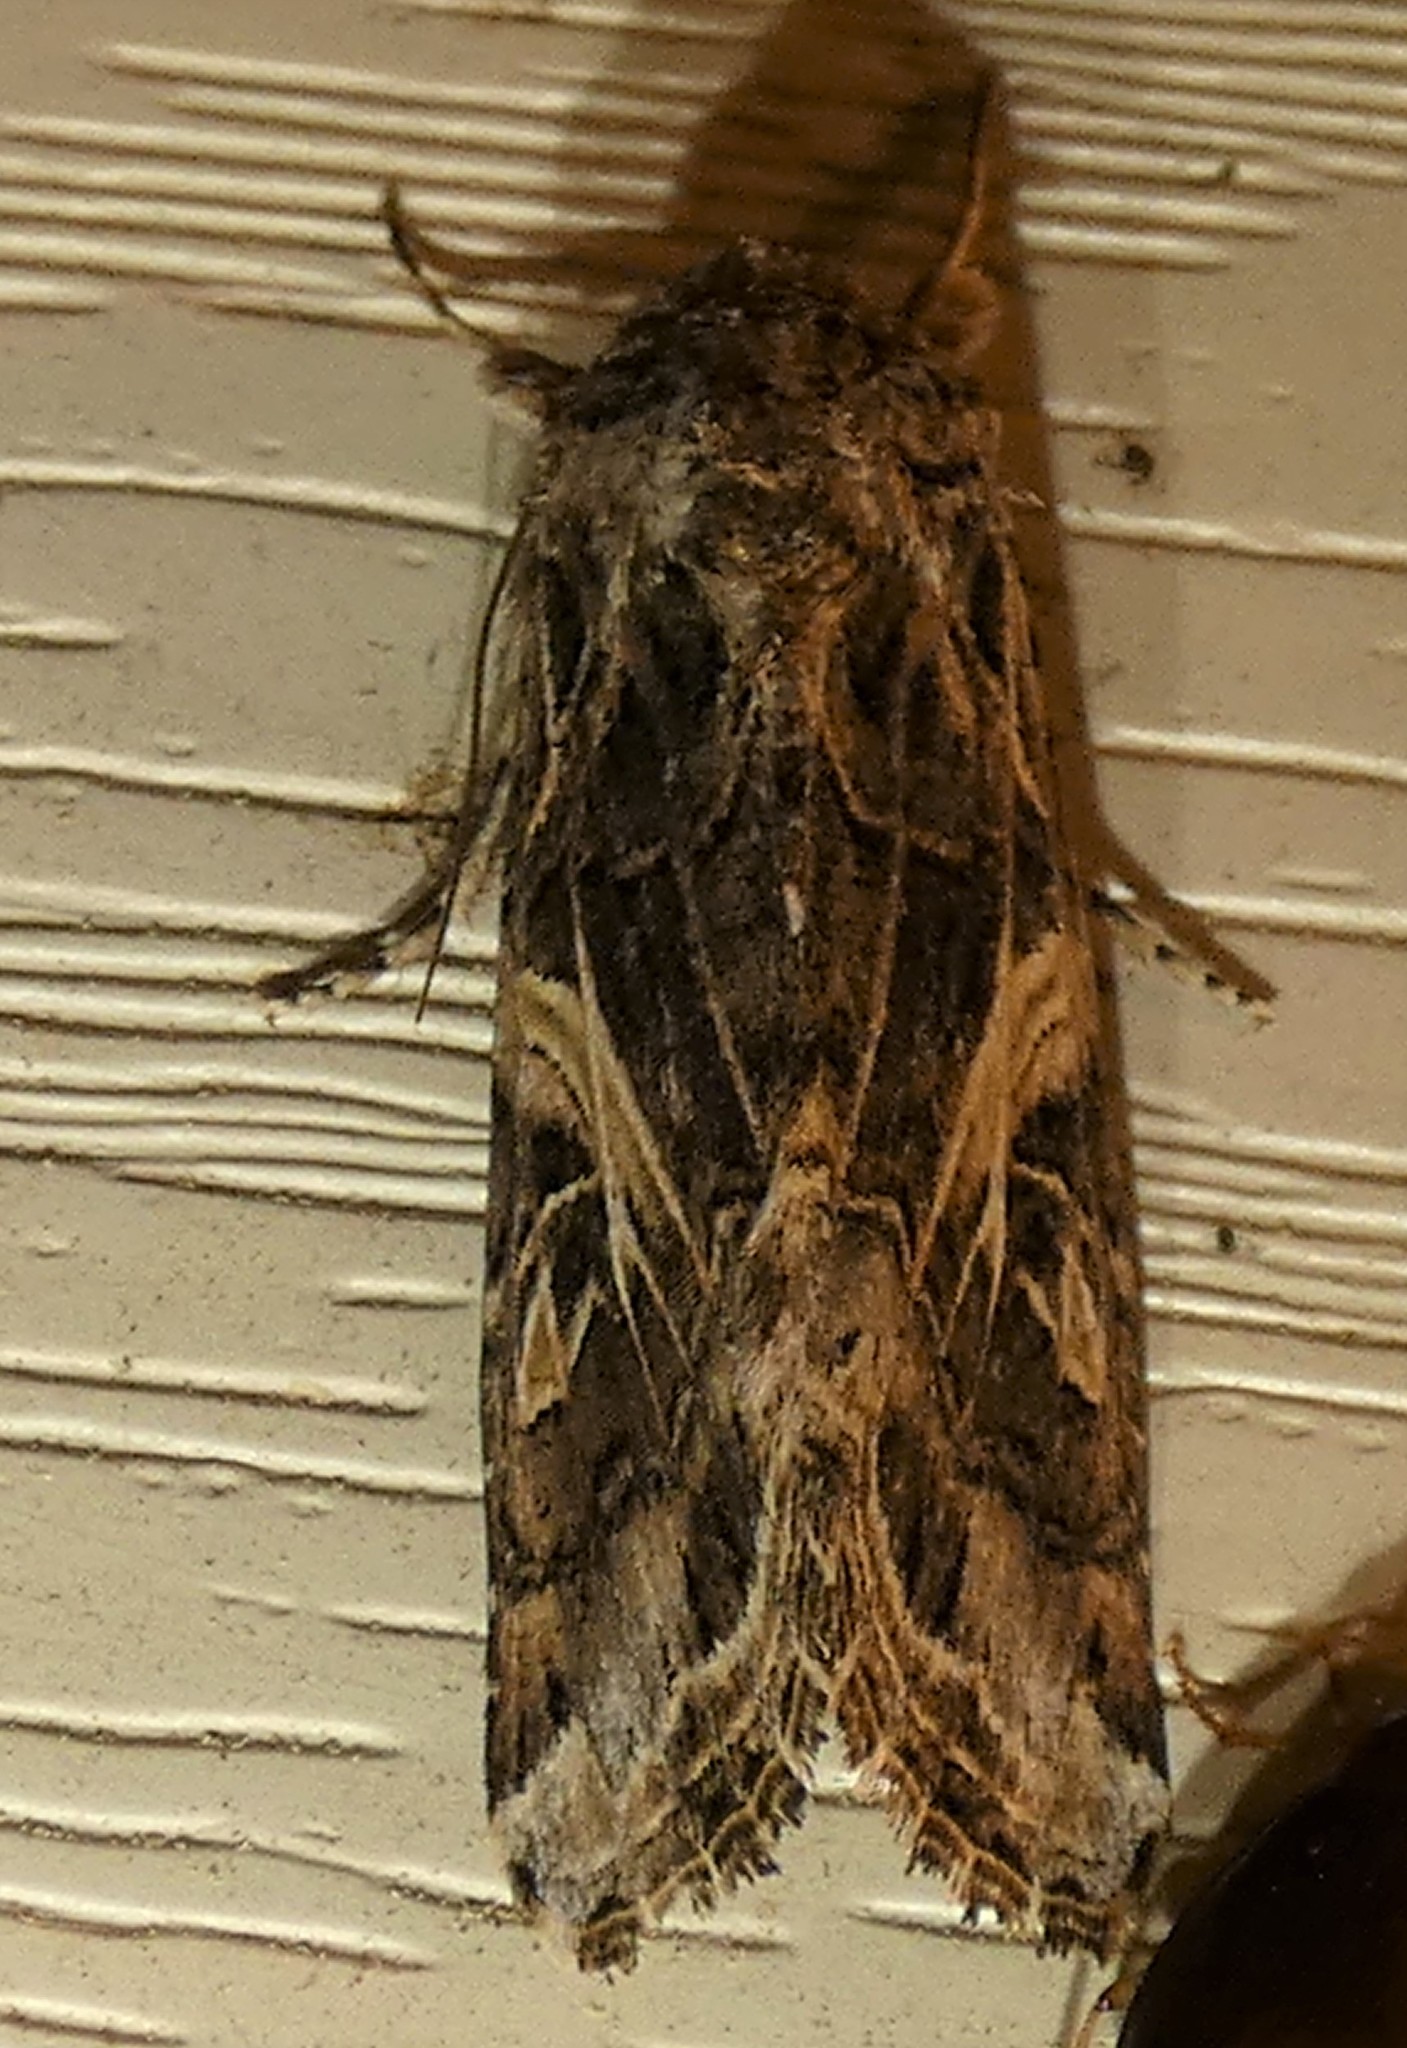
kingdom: Animalia
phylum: Arthropoda
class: Insecta
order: Lepidoptera
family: Noctuidae
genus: Spodoptera
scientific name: Spodoptera ornithogalli
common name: Yellow-striped armyworm
